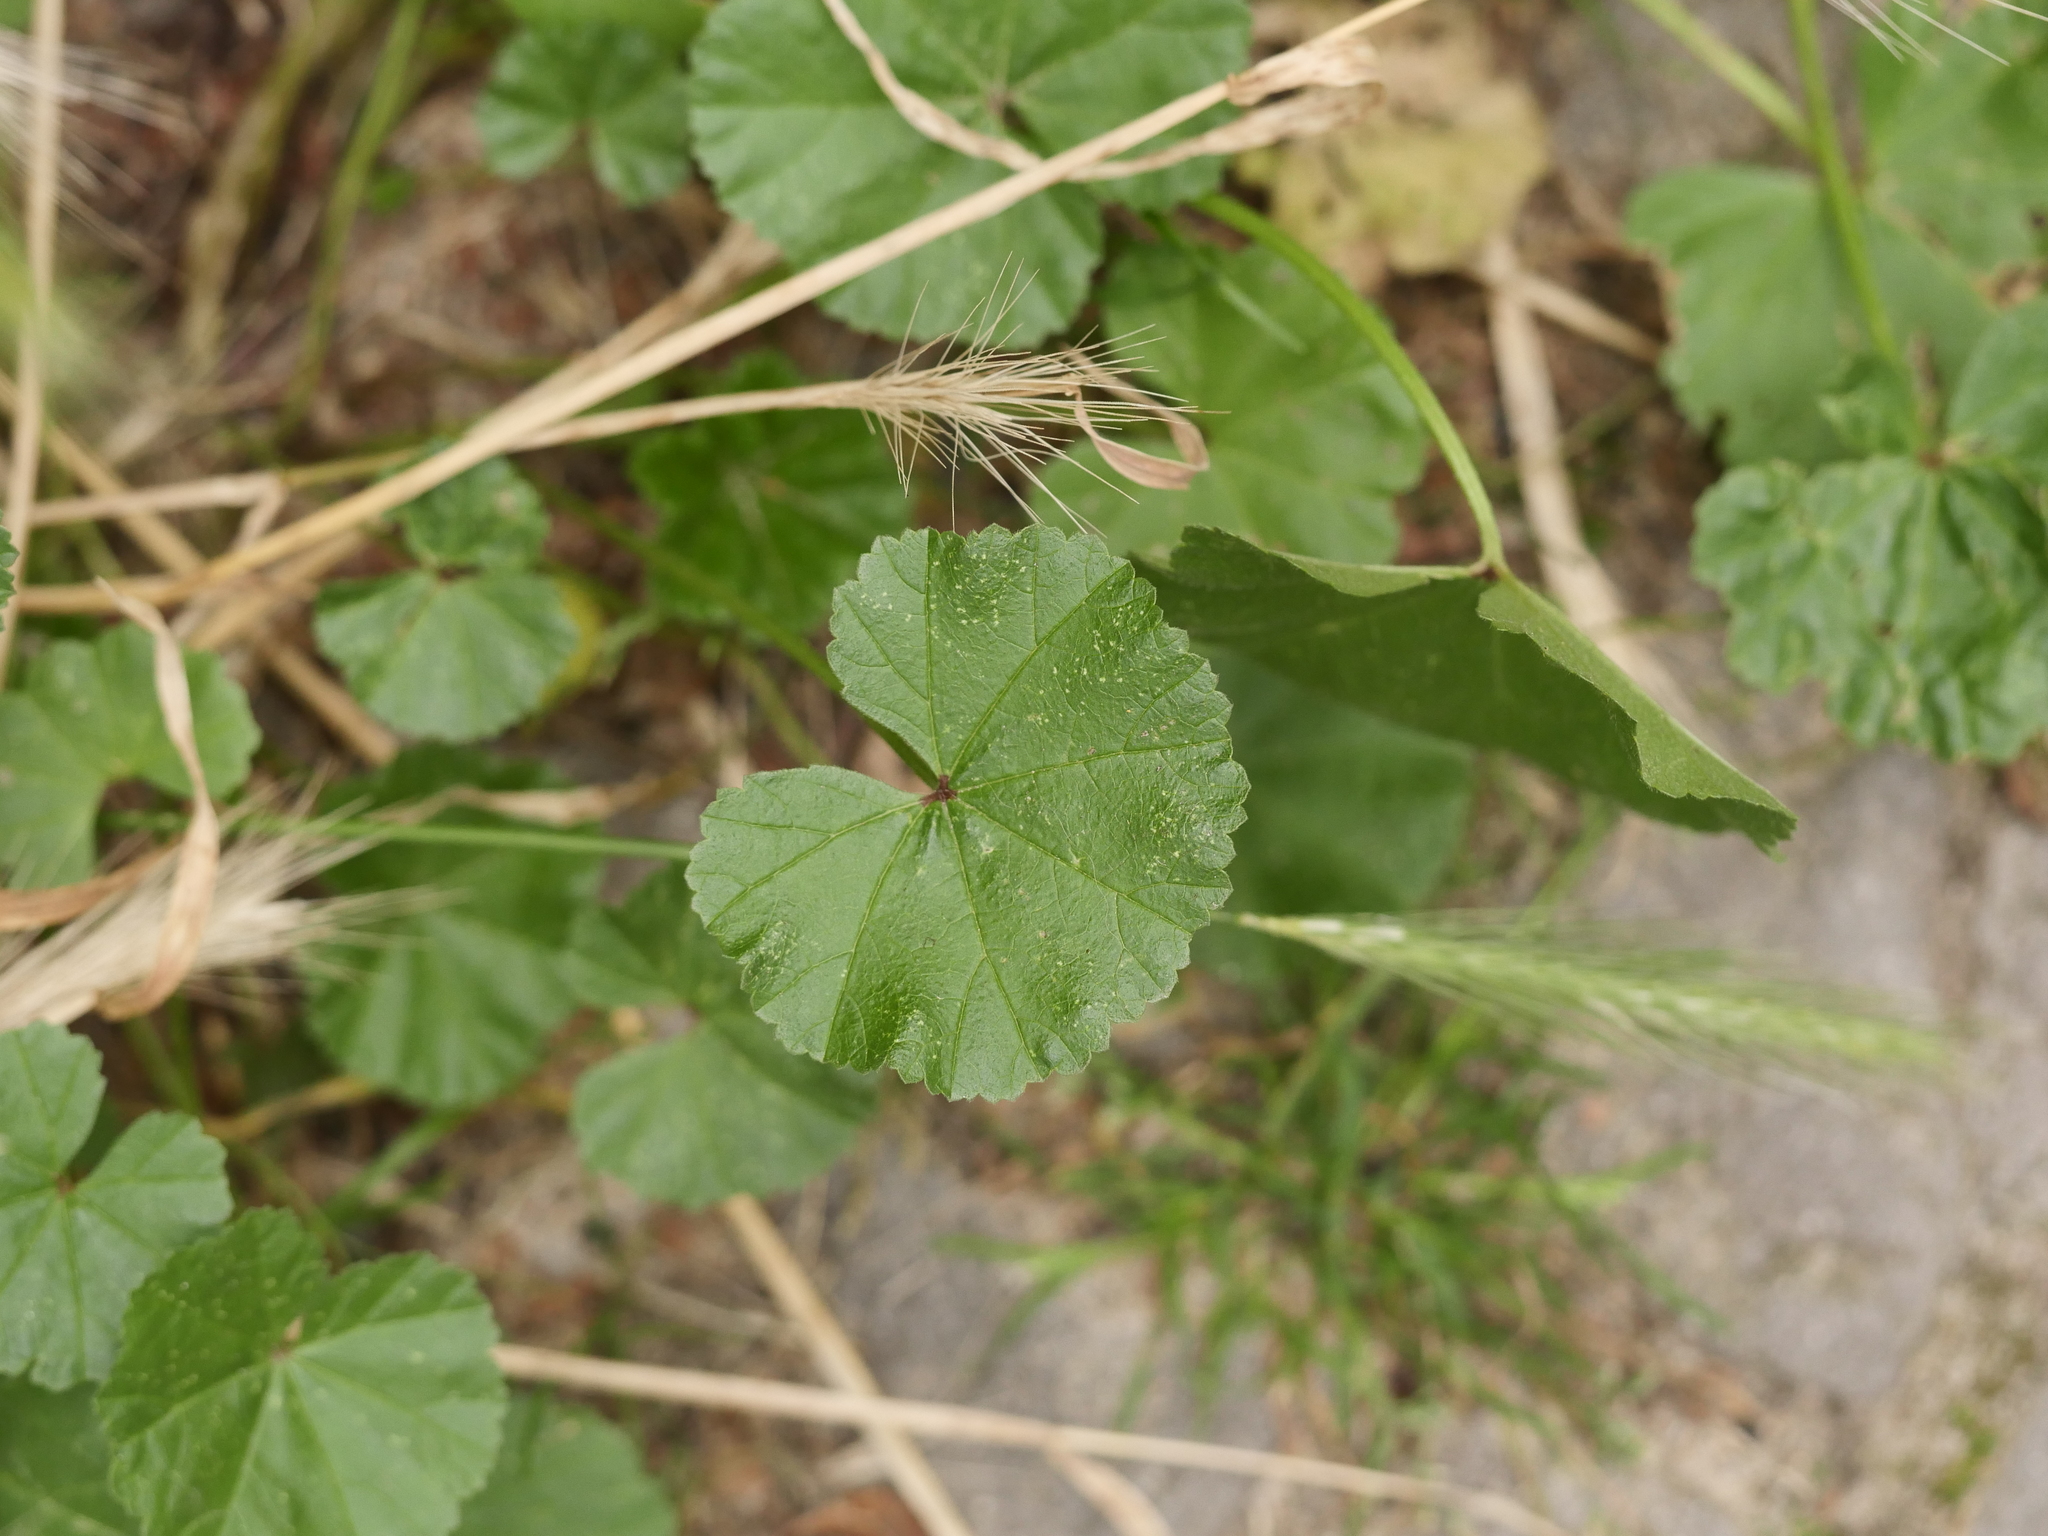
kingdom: Plantae
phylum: Tracheophyta
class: Magnoliopsida
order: Malvales
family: Malvaceae
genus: Malva
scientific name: Malva neglecta
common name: Common mallow
